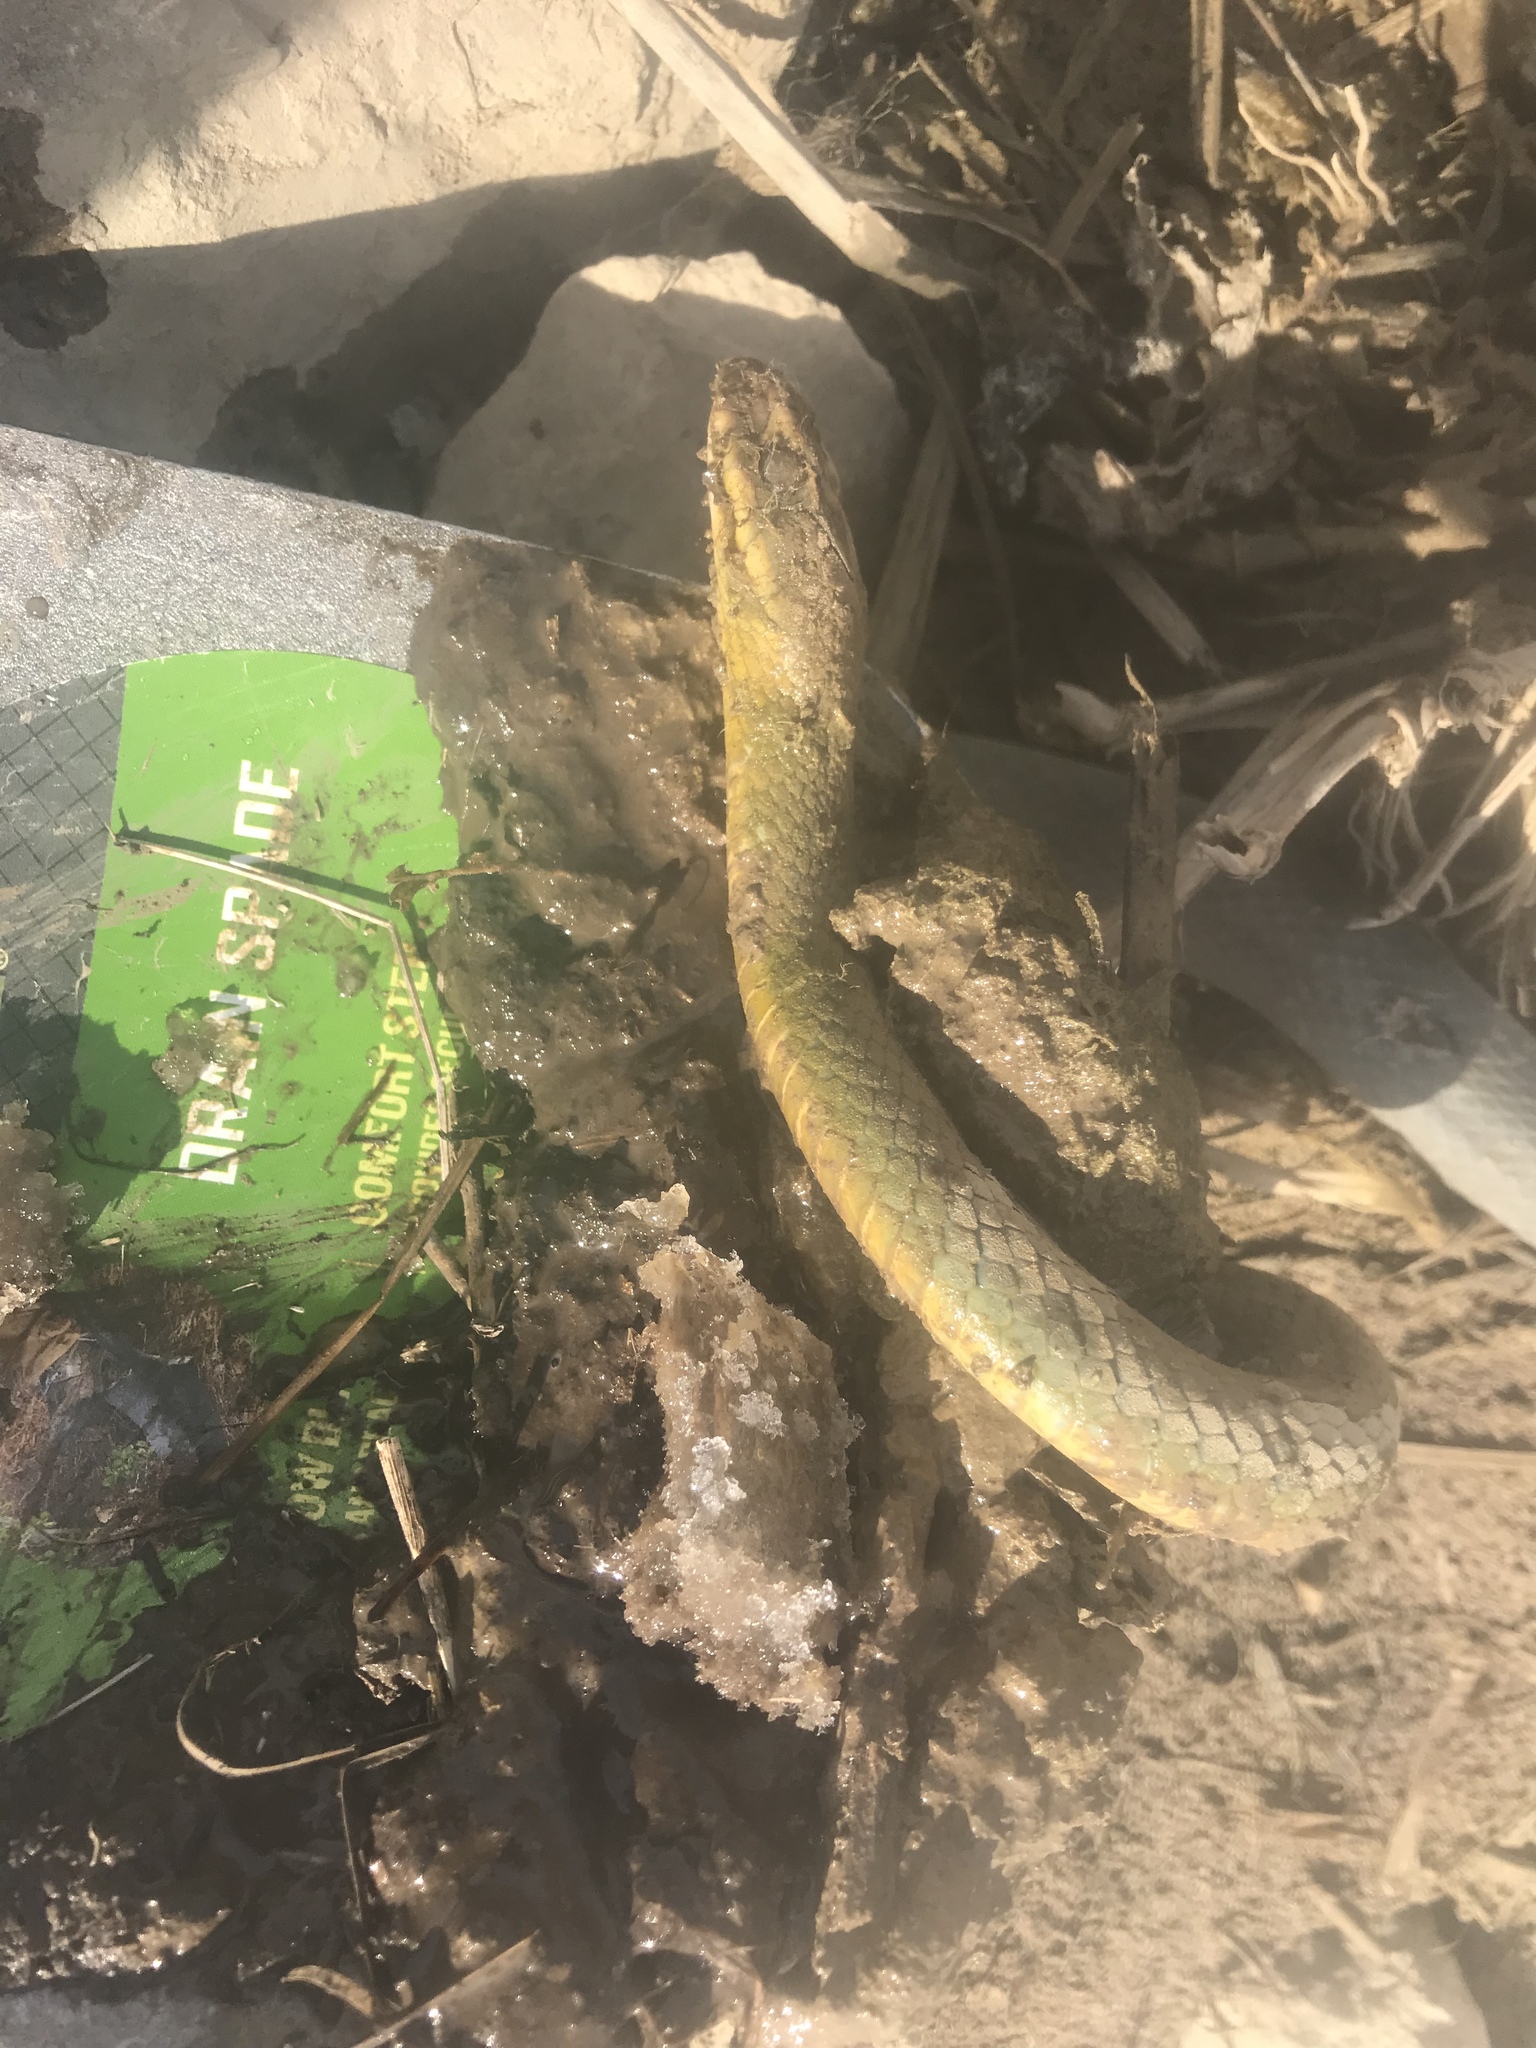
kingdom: Animalia
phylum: Chordata
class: Squamata
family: Colubridae
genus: Coluber
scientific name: Coluber constrictor
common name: Eastern racer
